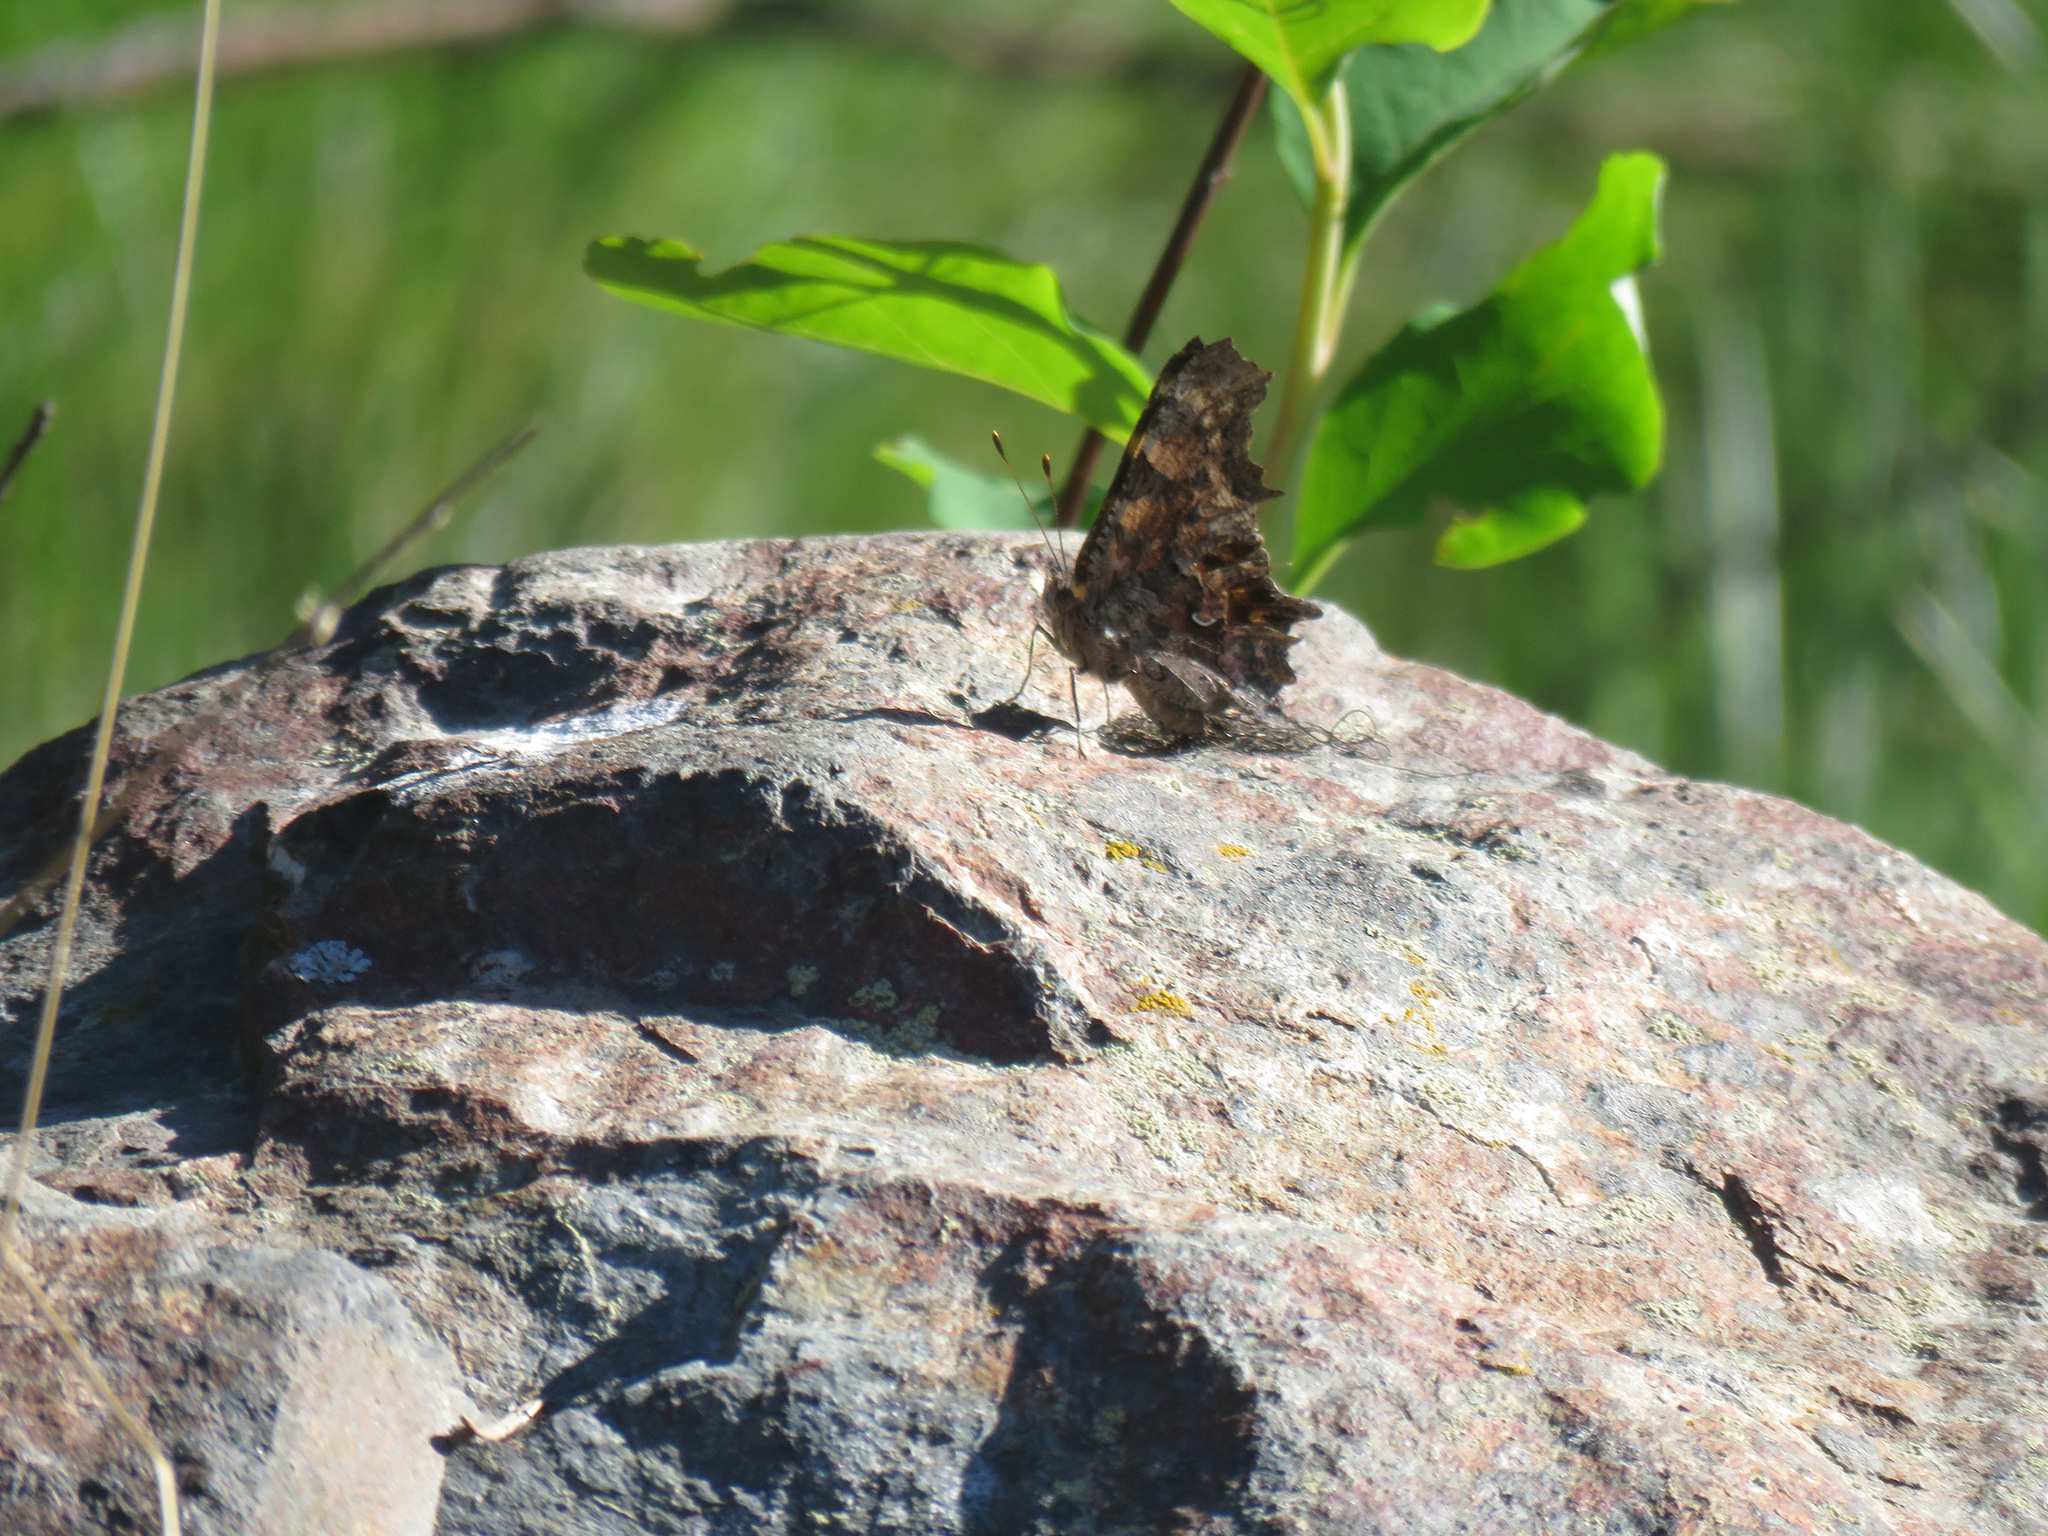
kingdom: Animalia
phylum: Arthropoda
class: Insecta
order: Lepidoptera
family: Nymphalidae
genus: Polygonia
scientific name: Polygonia faunus
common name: Green comma
